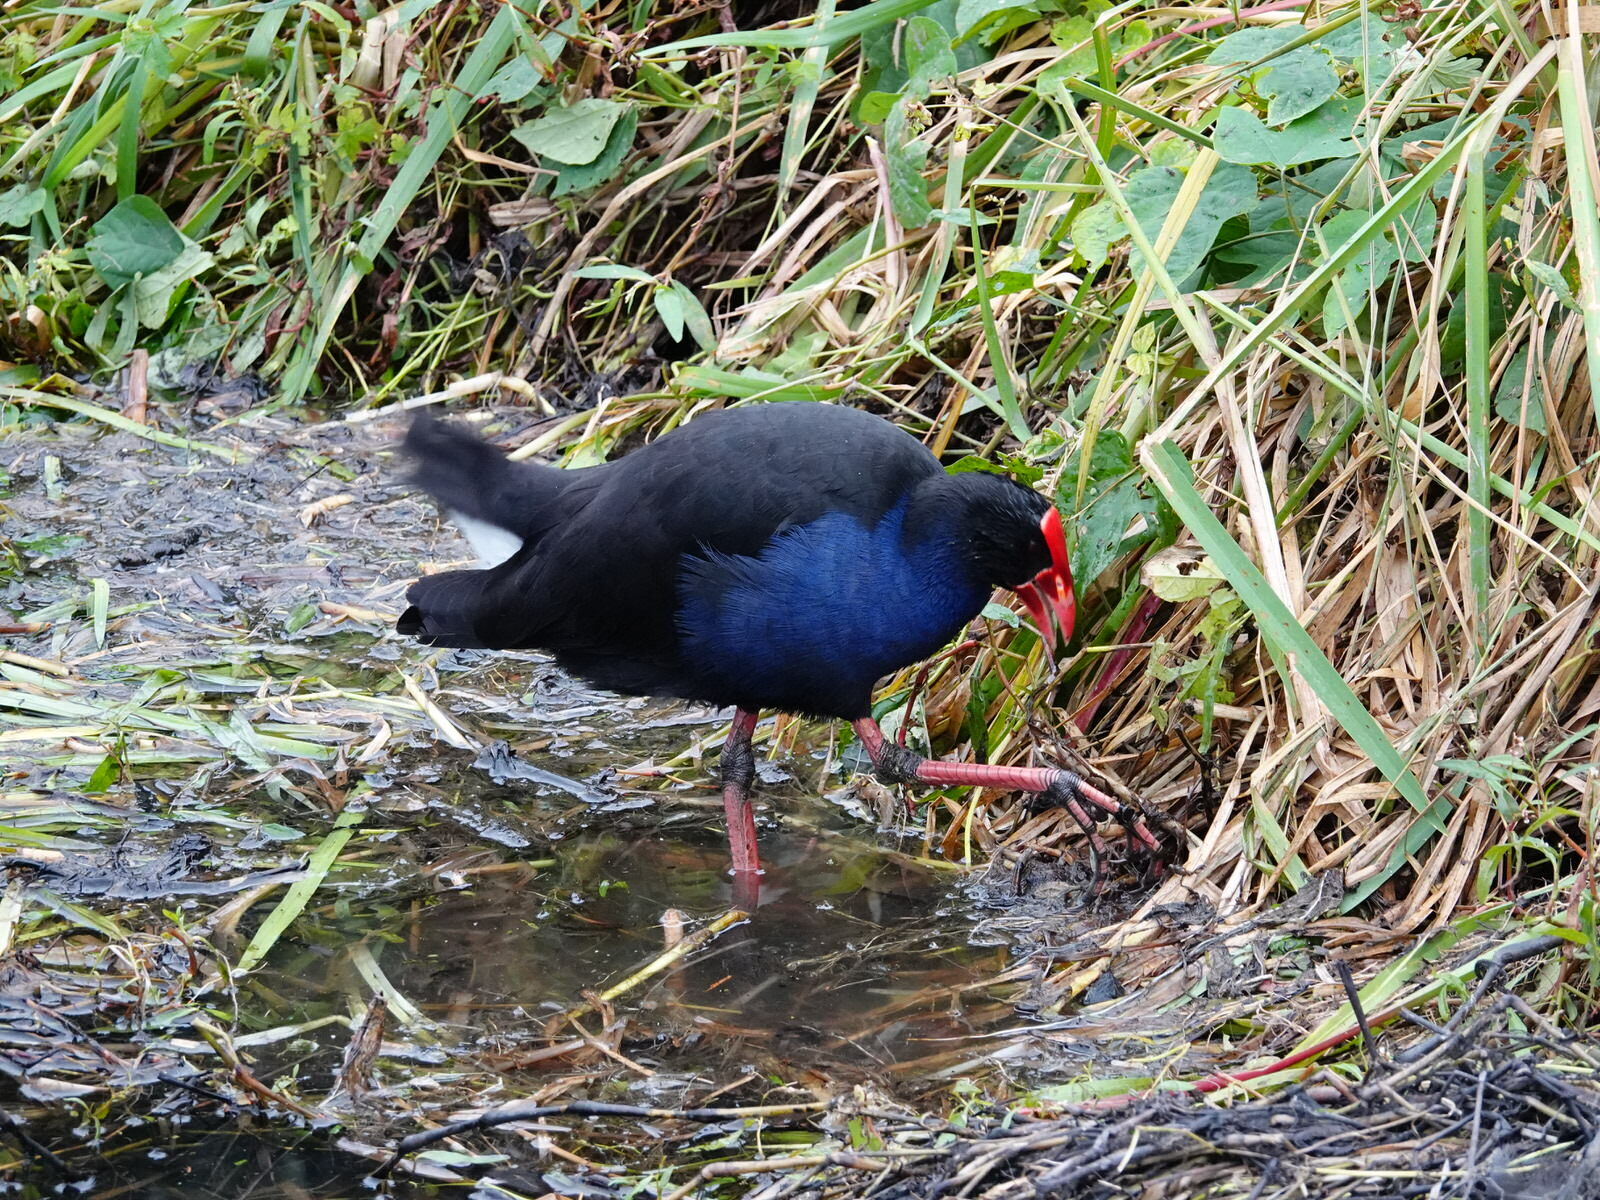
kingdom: Animalia
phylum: Chordata
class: Aves
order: Gruiformes
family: Rallidae
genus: Porphyrio
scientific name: Porphyrio melanotus
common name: Australasian swamphen
